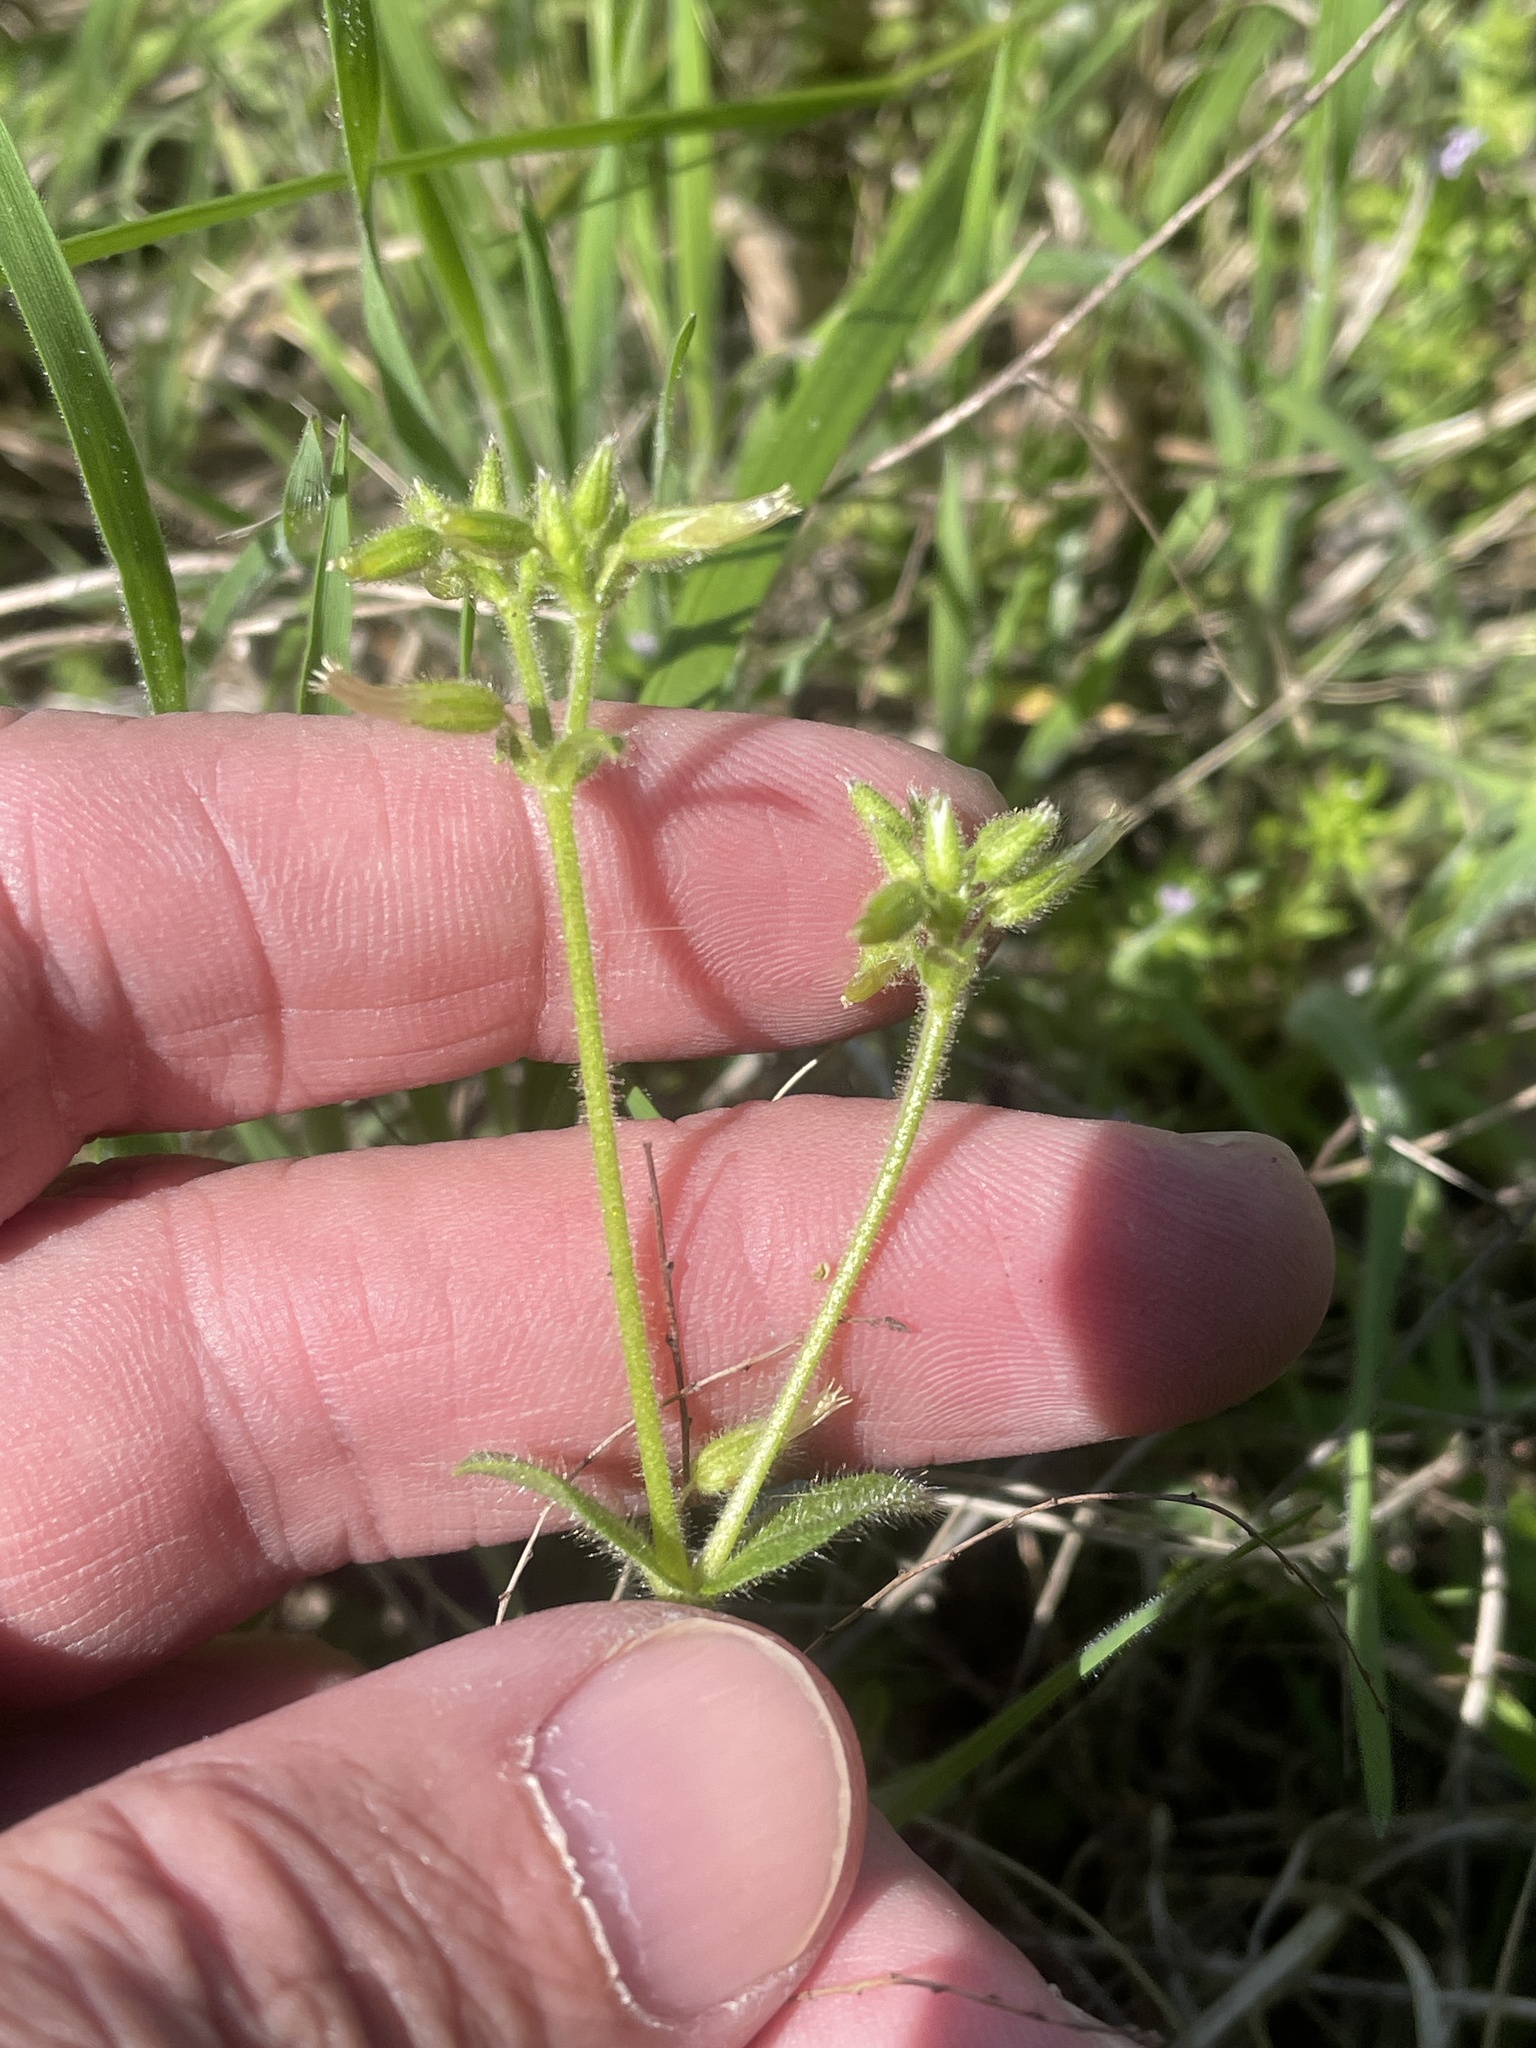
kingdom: Plantae
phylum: Tracheophyta
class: Magnoliopsida
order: Caryophyllales
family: Caryophyllaceae
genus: Cerastium
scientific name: Cerastium glomeratum
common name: Sticky chickweed
